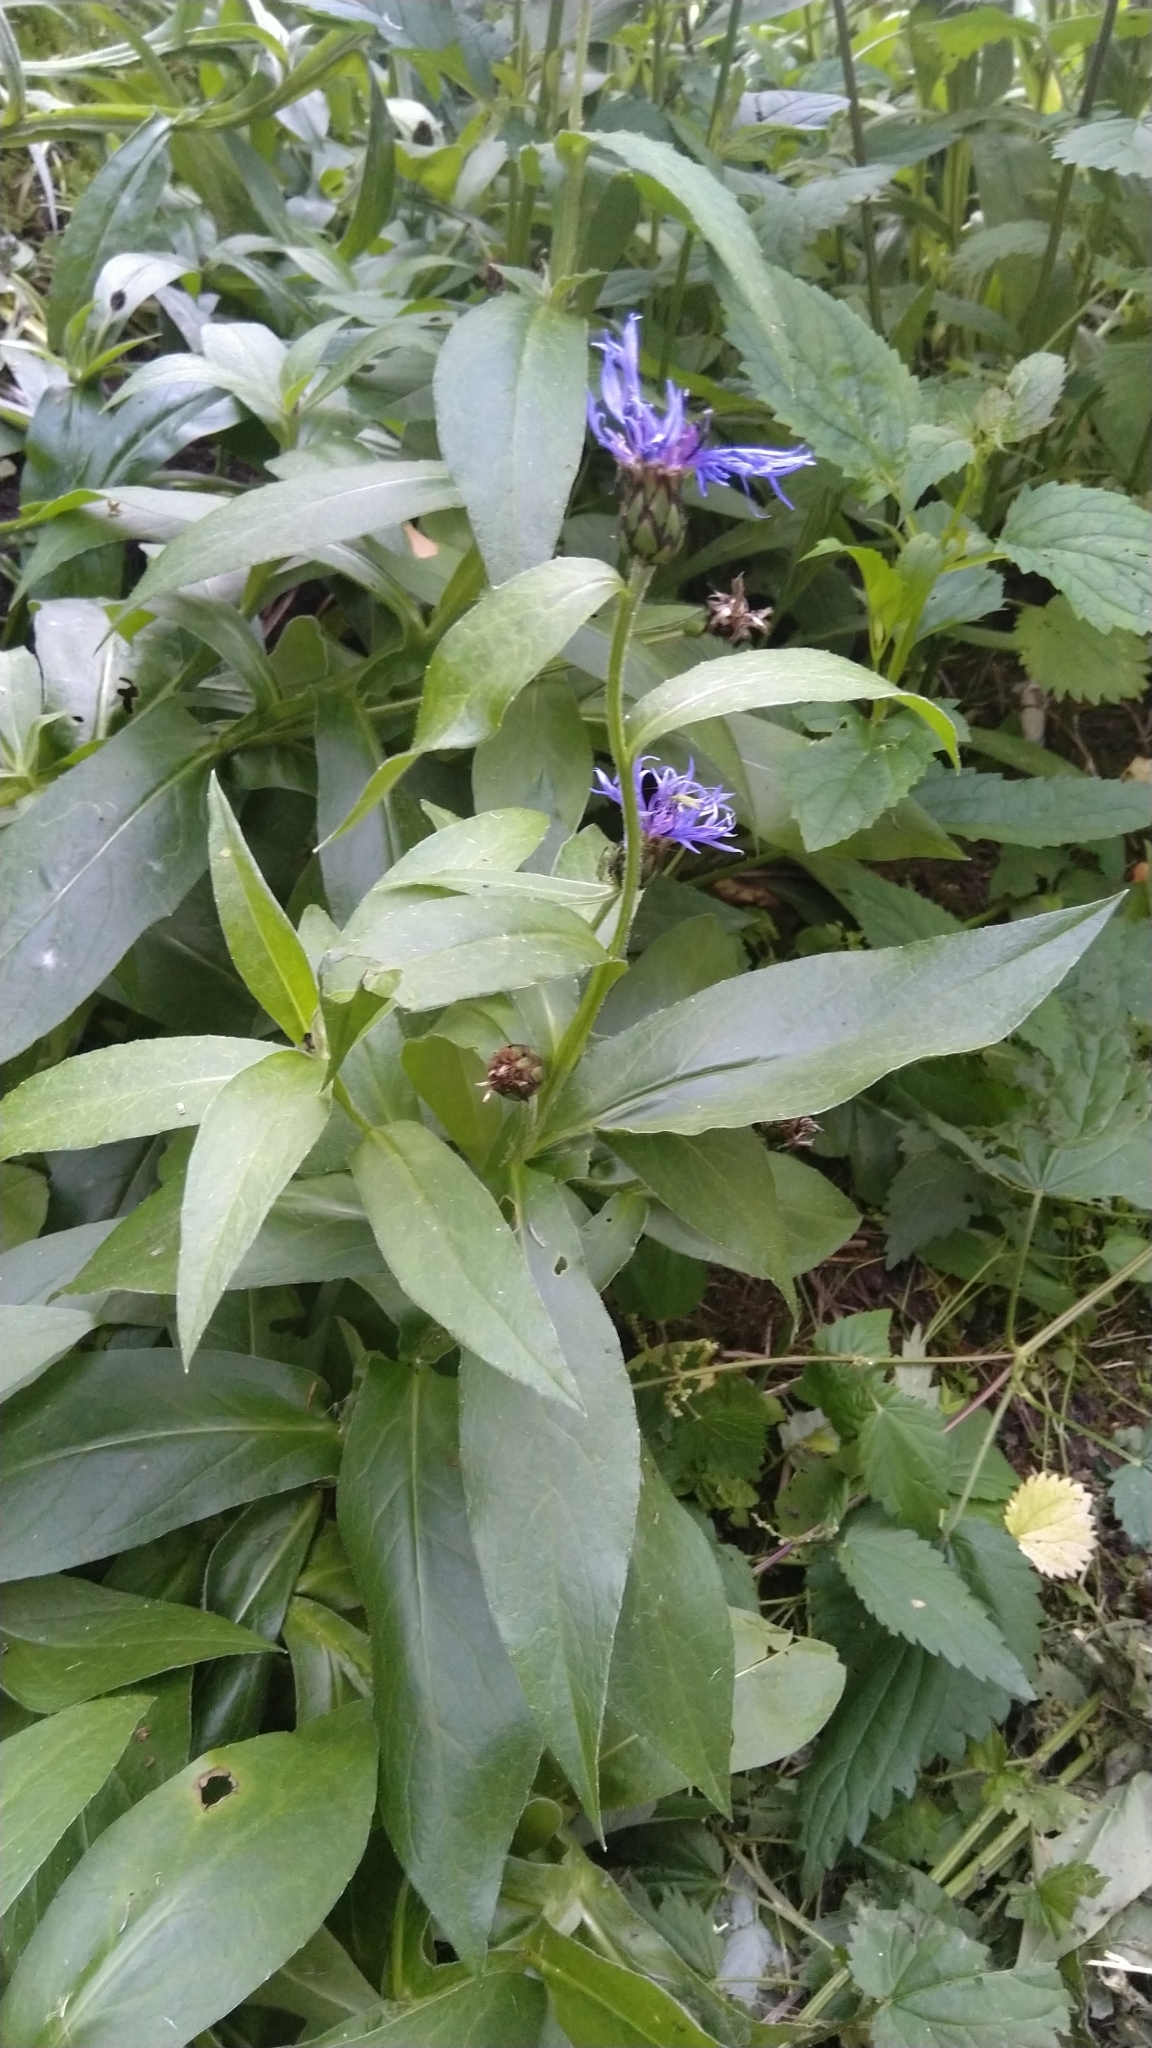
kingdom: Plantae
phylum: Tracheophyta
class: Magnoliopsida
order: Asterales
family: Asteraceae
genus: Centaurea
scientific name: Centaurea montana
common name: Perennial cornflower
